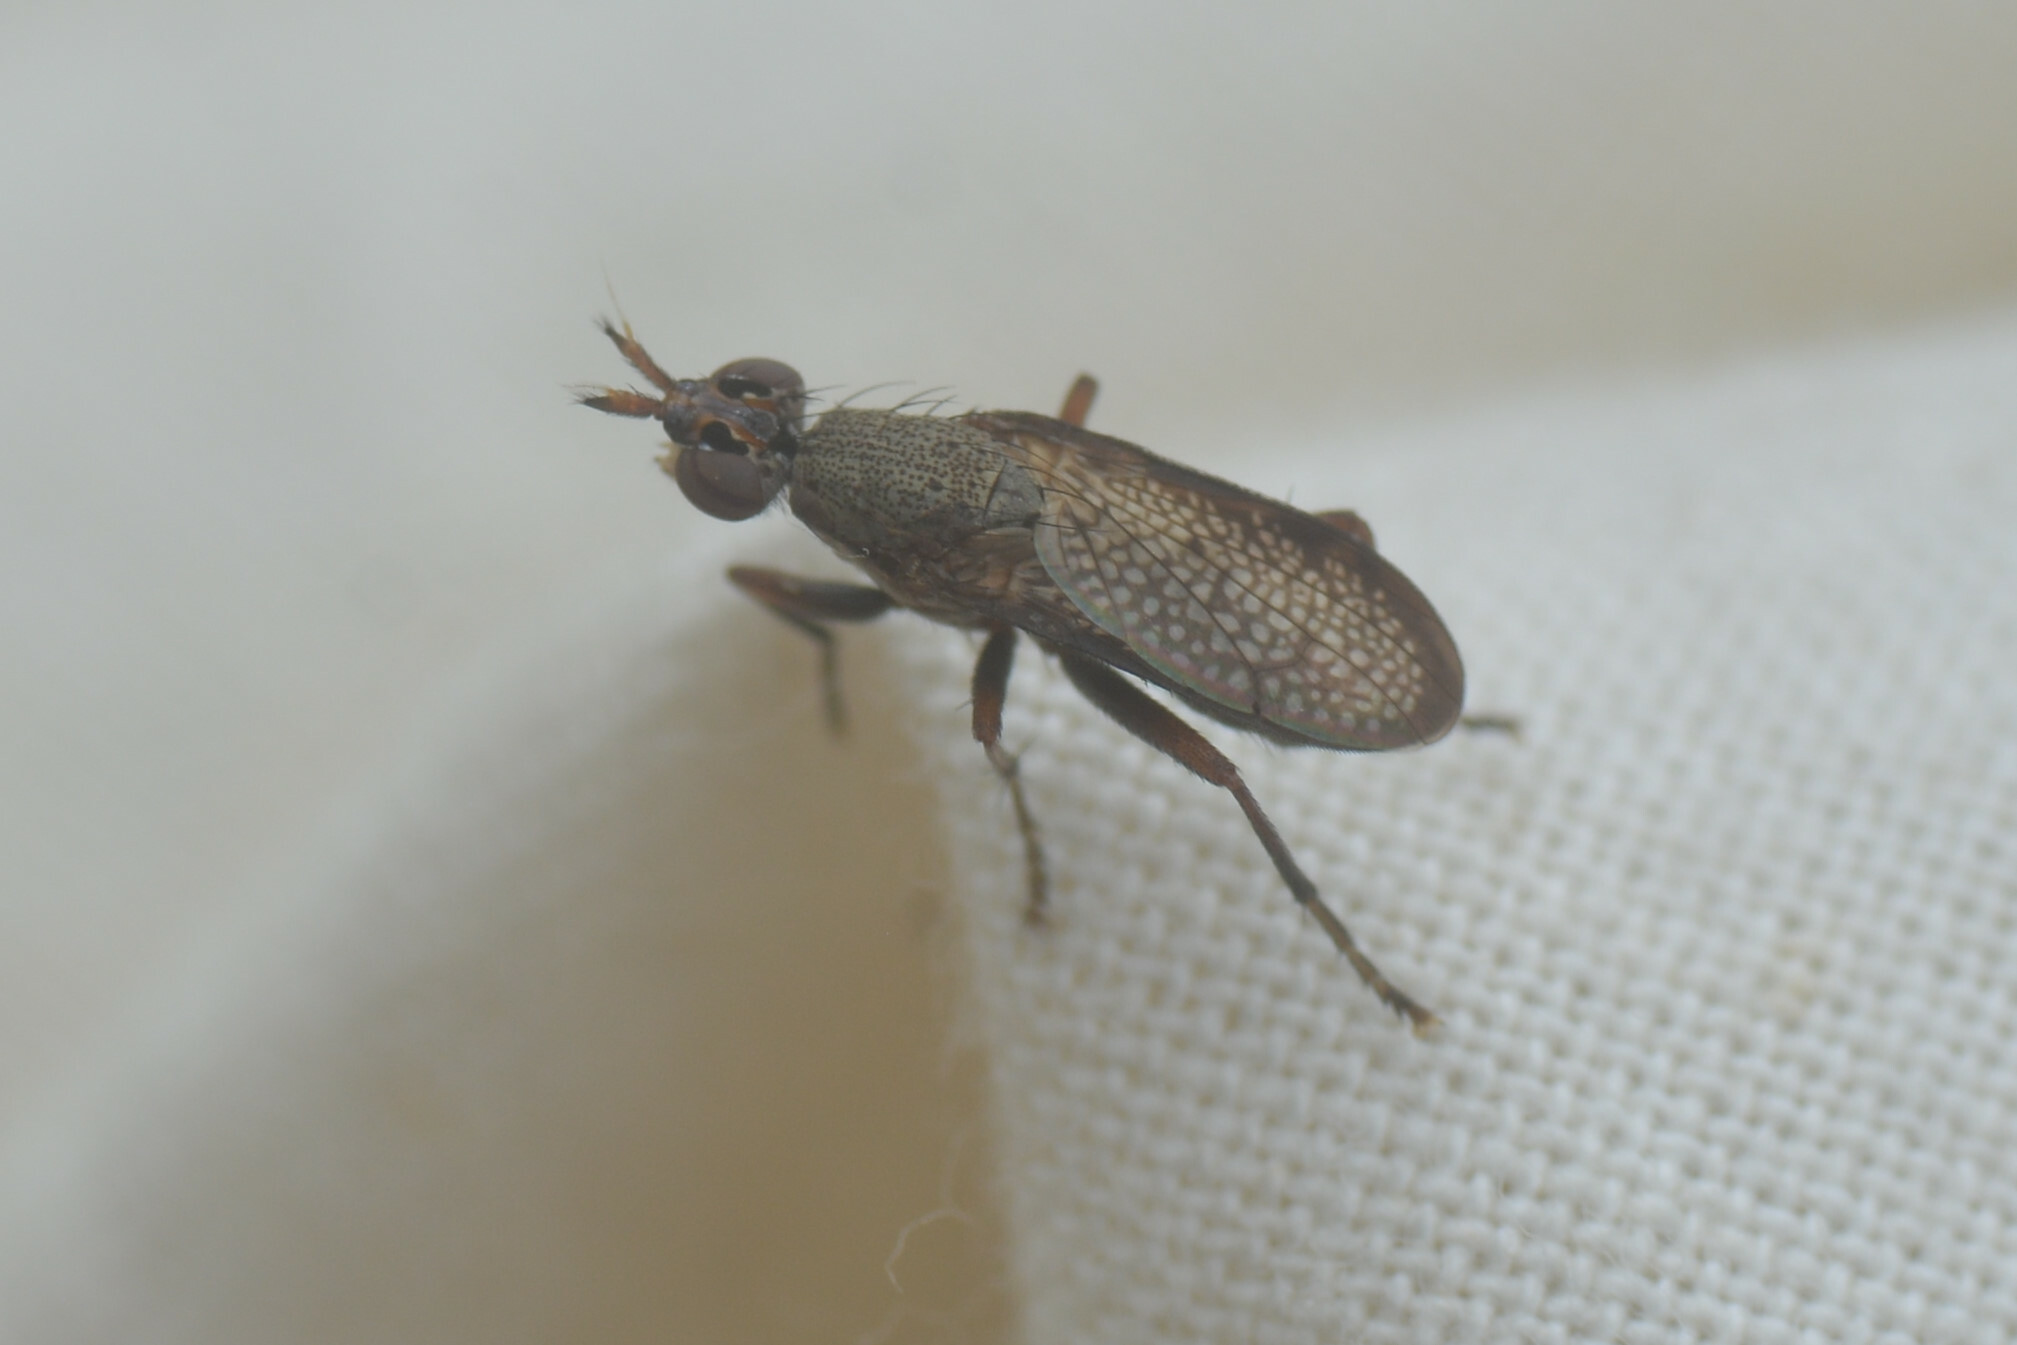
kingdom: Animalia
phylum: Arthropoda
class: Insecta
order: Diptera
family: Sciomyzidae
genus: Coremacera
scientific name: Coremacera marginata
